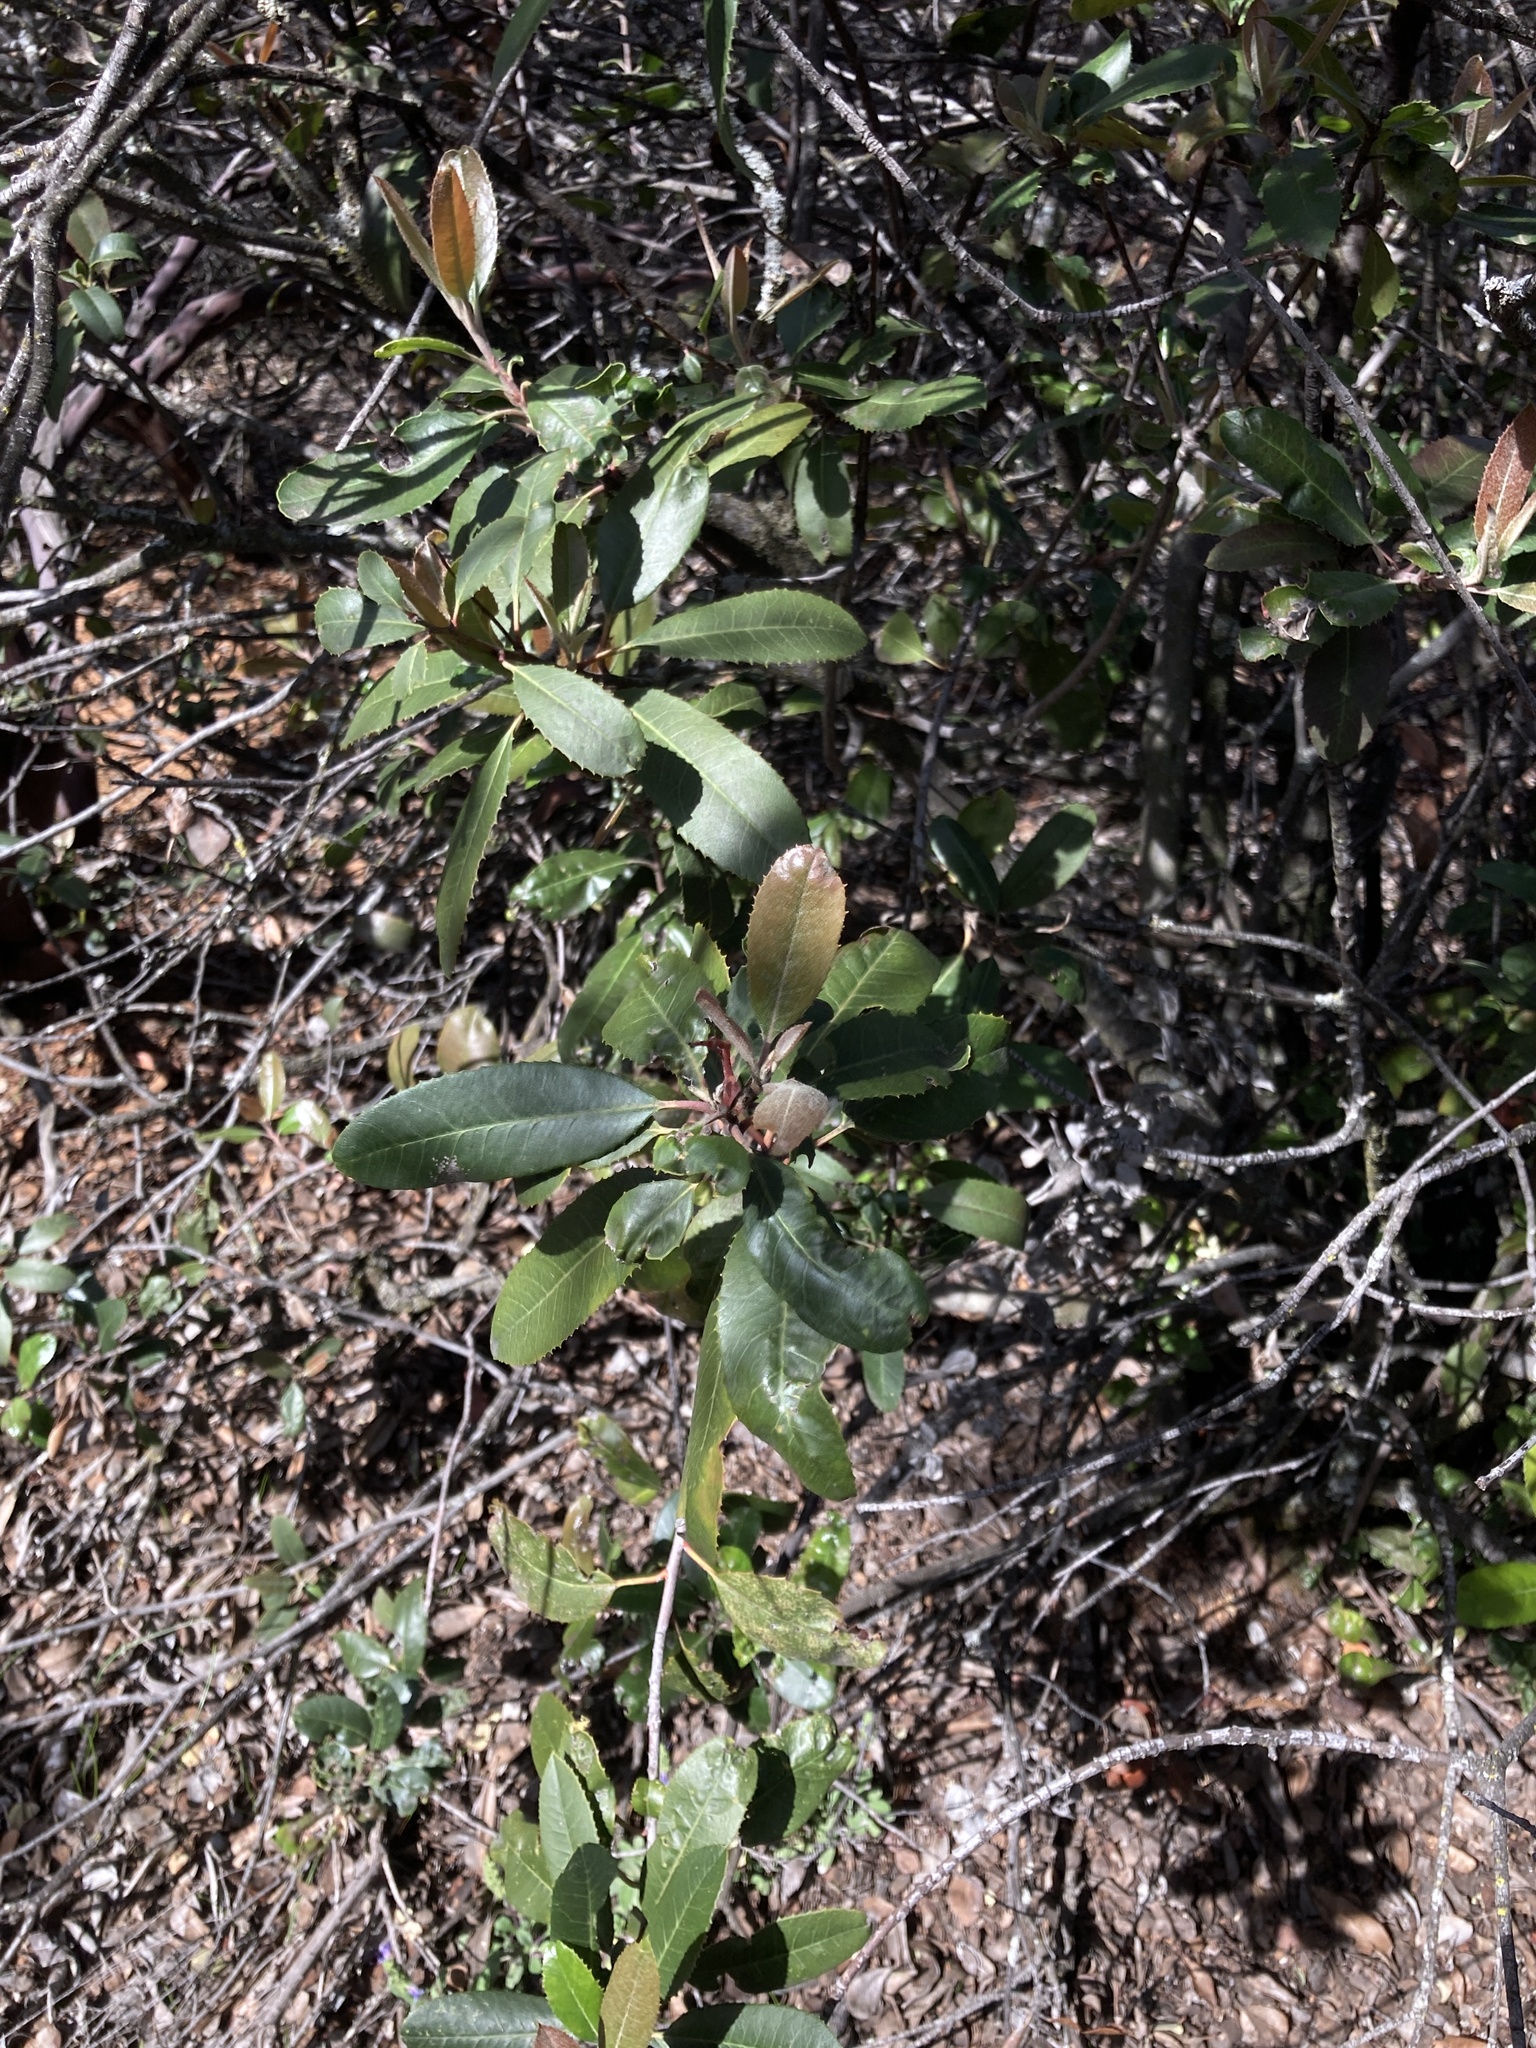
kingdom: Plantae
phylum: Tracheophyta
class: Magnoliopsida
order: Rosales
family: Rosaceae
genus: Heteromeles
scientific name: Heteromeles arbutifolia
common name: California-holly
